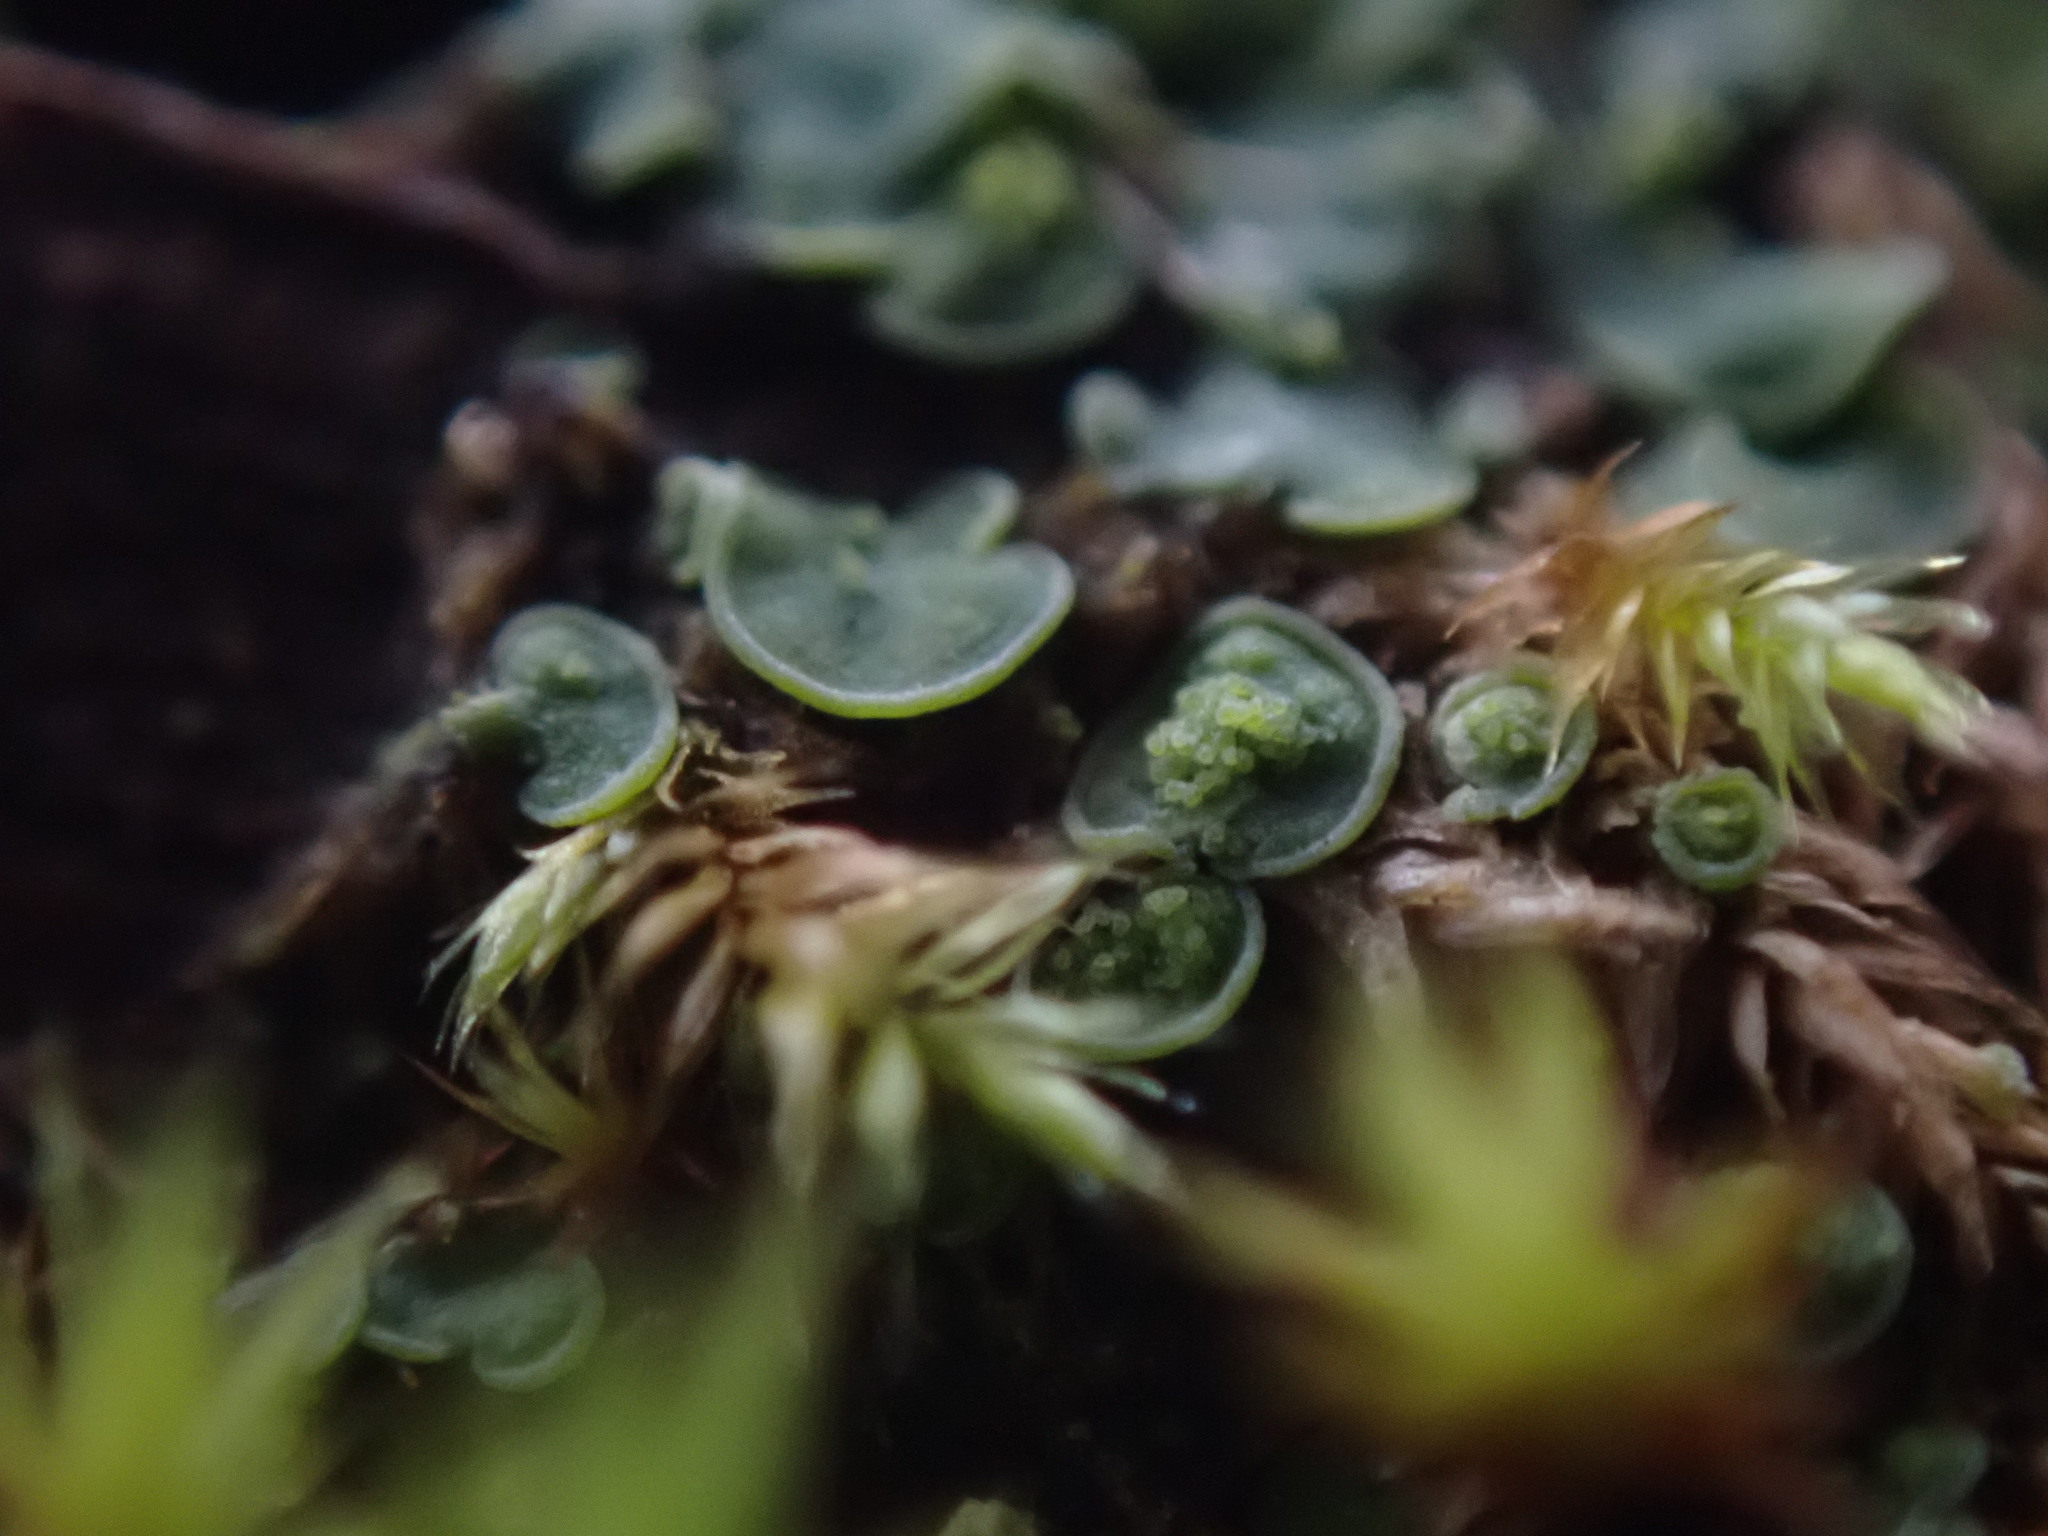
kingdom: Fungi
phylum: Ascomycota
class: Eurotiomycetes
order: Verrucariales
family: Verrucariaceae
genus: Normandina
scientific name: Normandina pulchella
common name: Elf ears lichen
